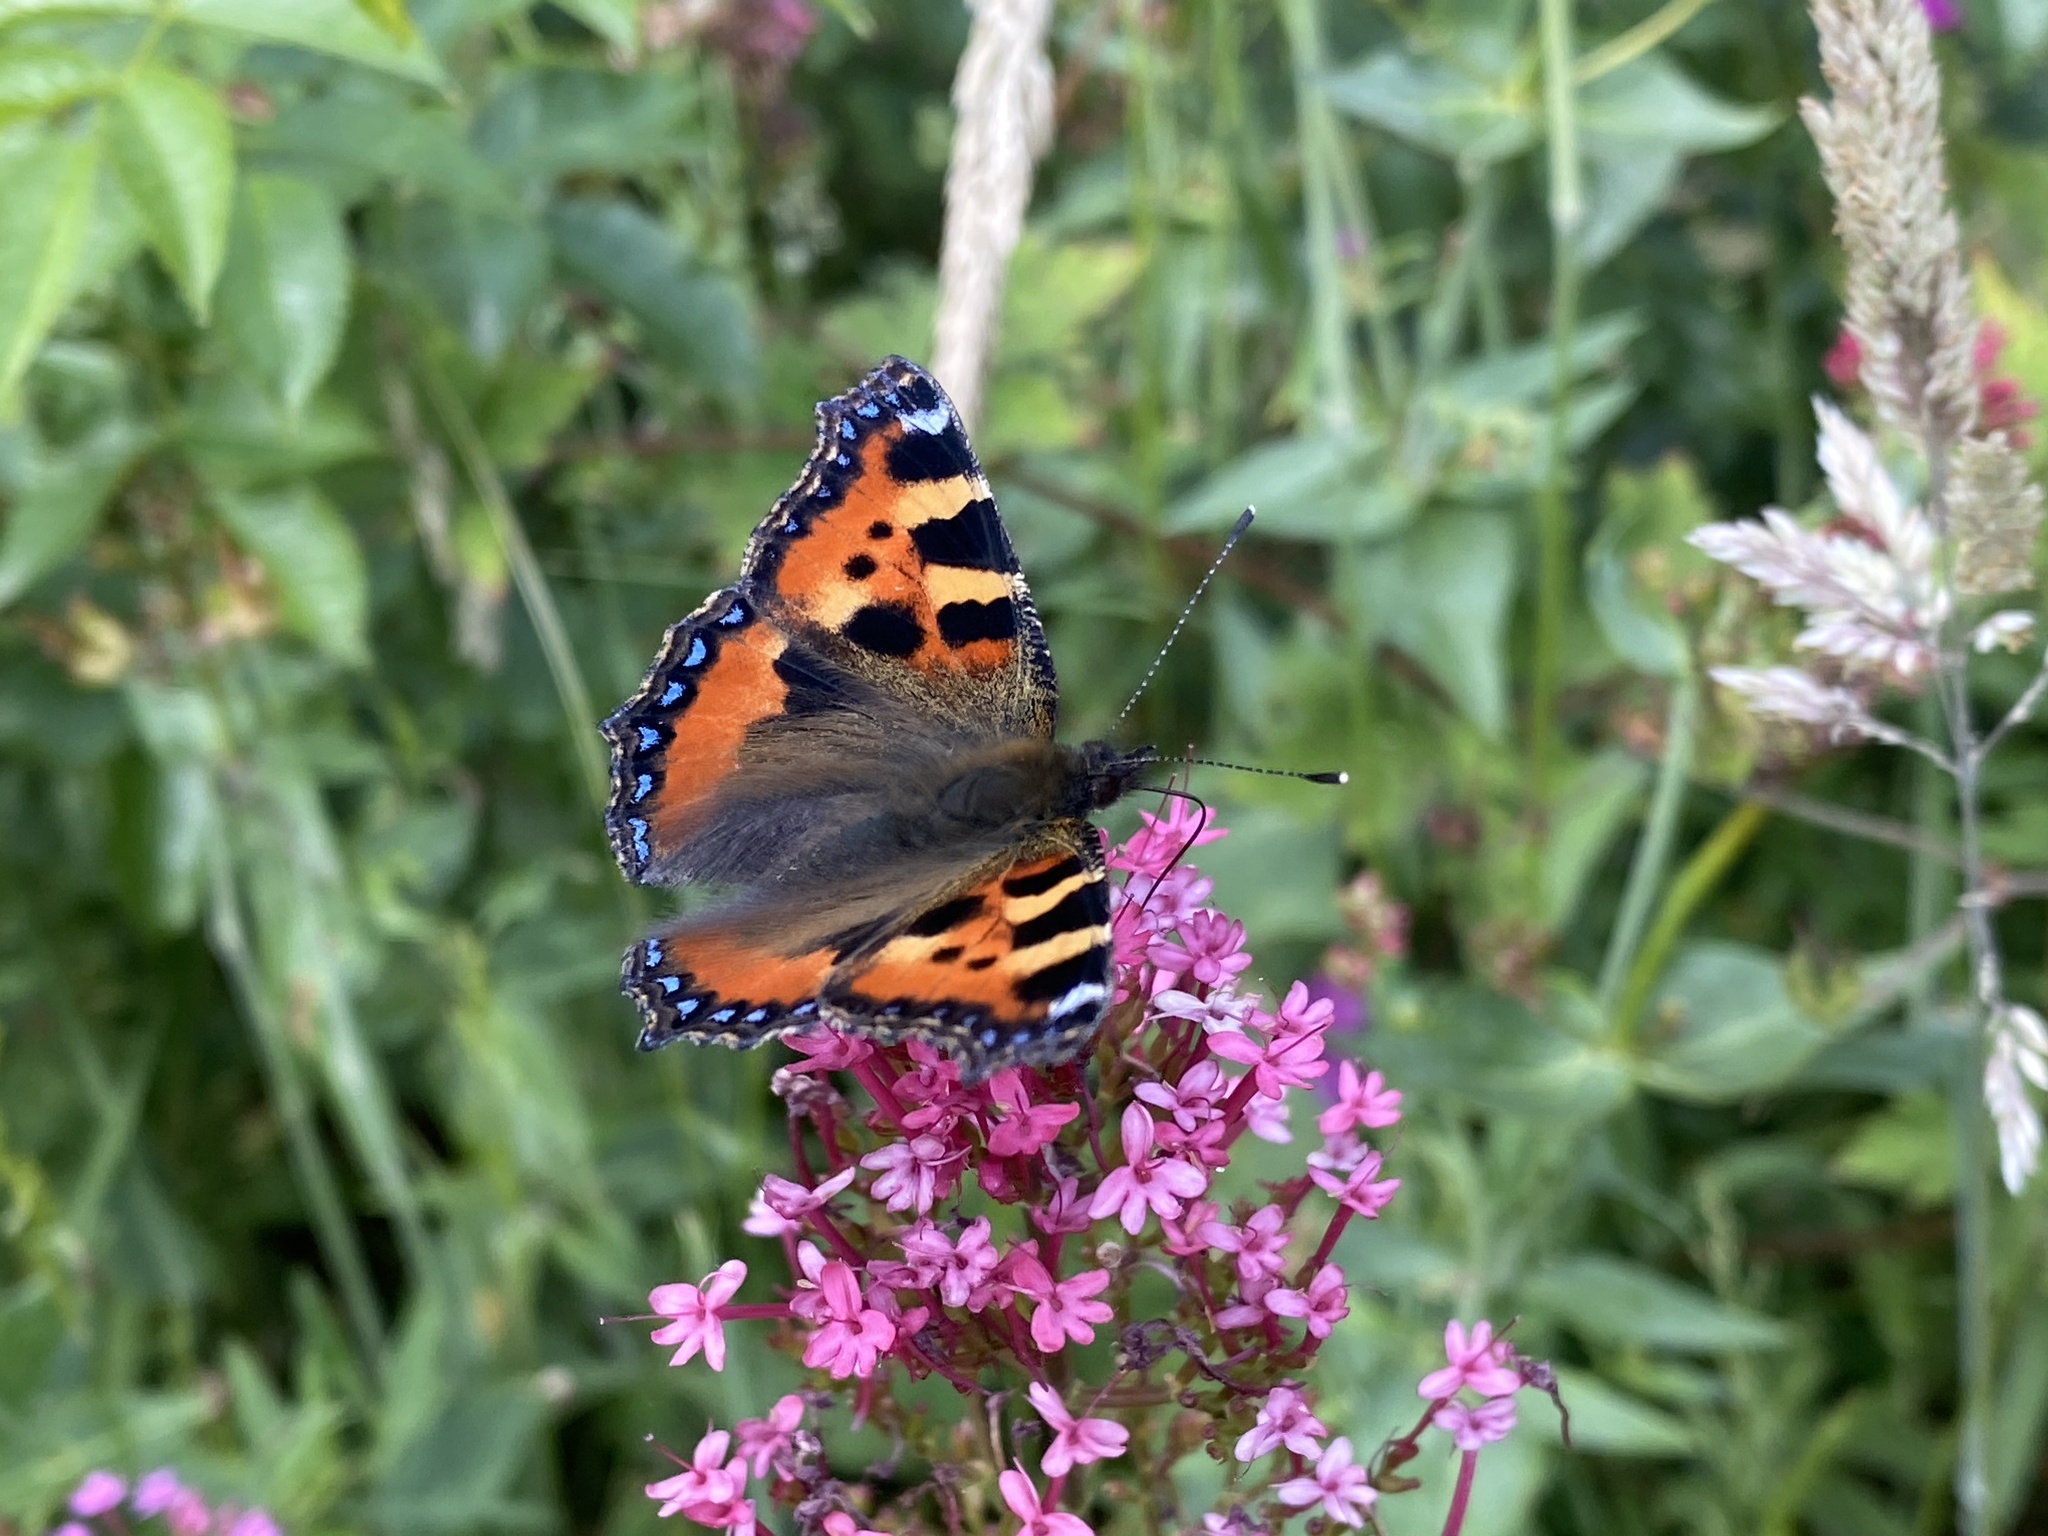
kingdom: Animalia
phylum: Arthropoda
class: Insecta
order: Lepidoptera
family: Nymphalidae
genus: Aglais
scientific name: Aglais urticae
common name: Small tortoiseshell
